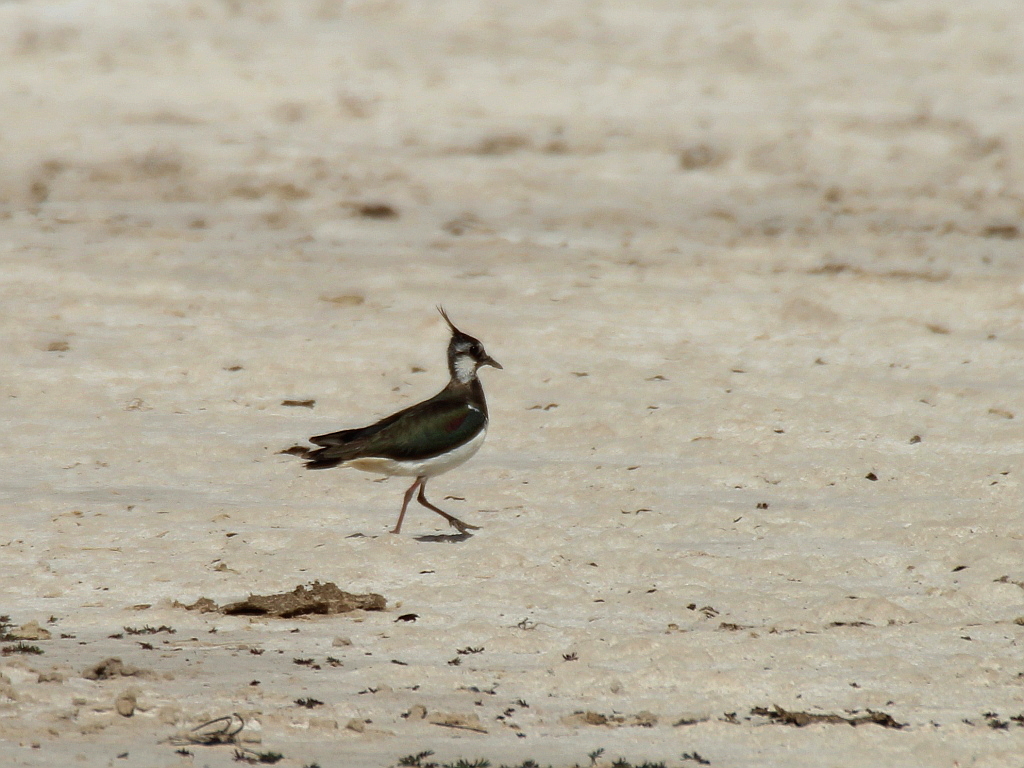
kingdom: Animalia
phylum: Chordata
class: Aves
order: Charadriiformes
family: Charadriidae
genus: Vanellus
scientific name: Vanellus vanellus
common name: Northern lapwing
